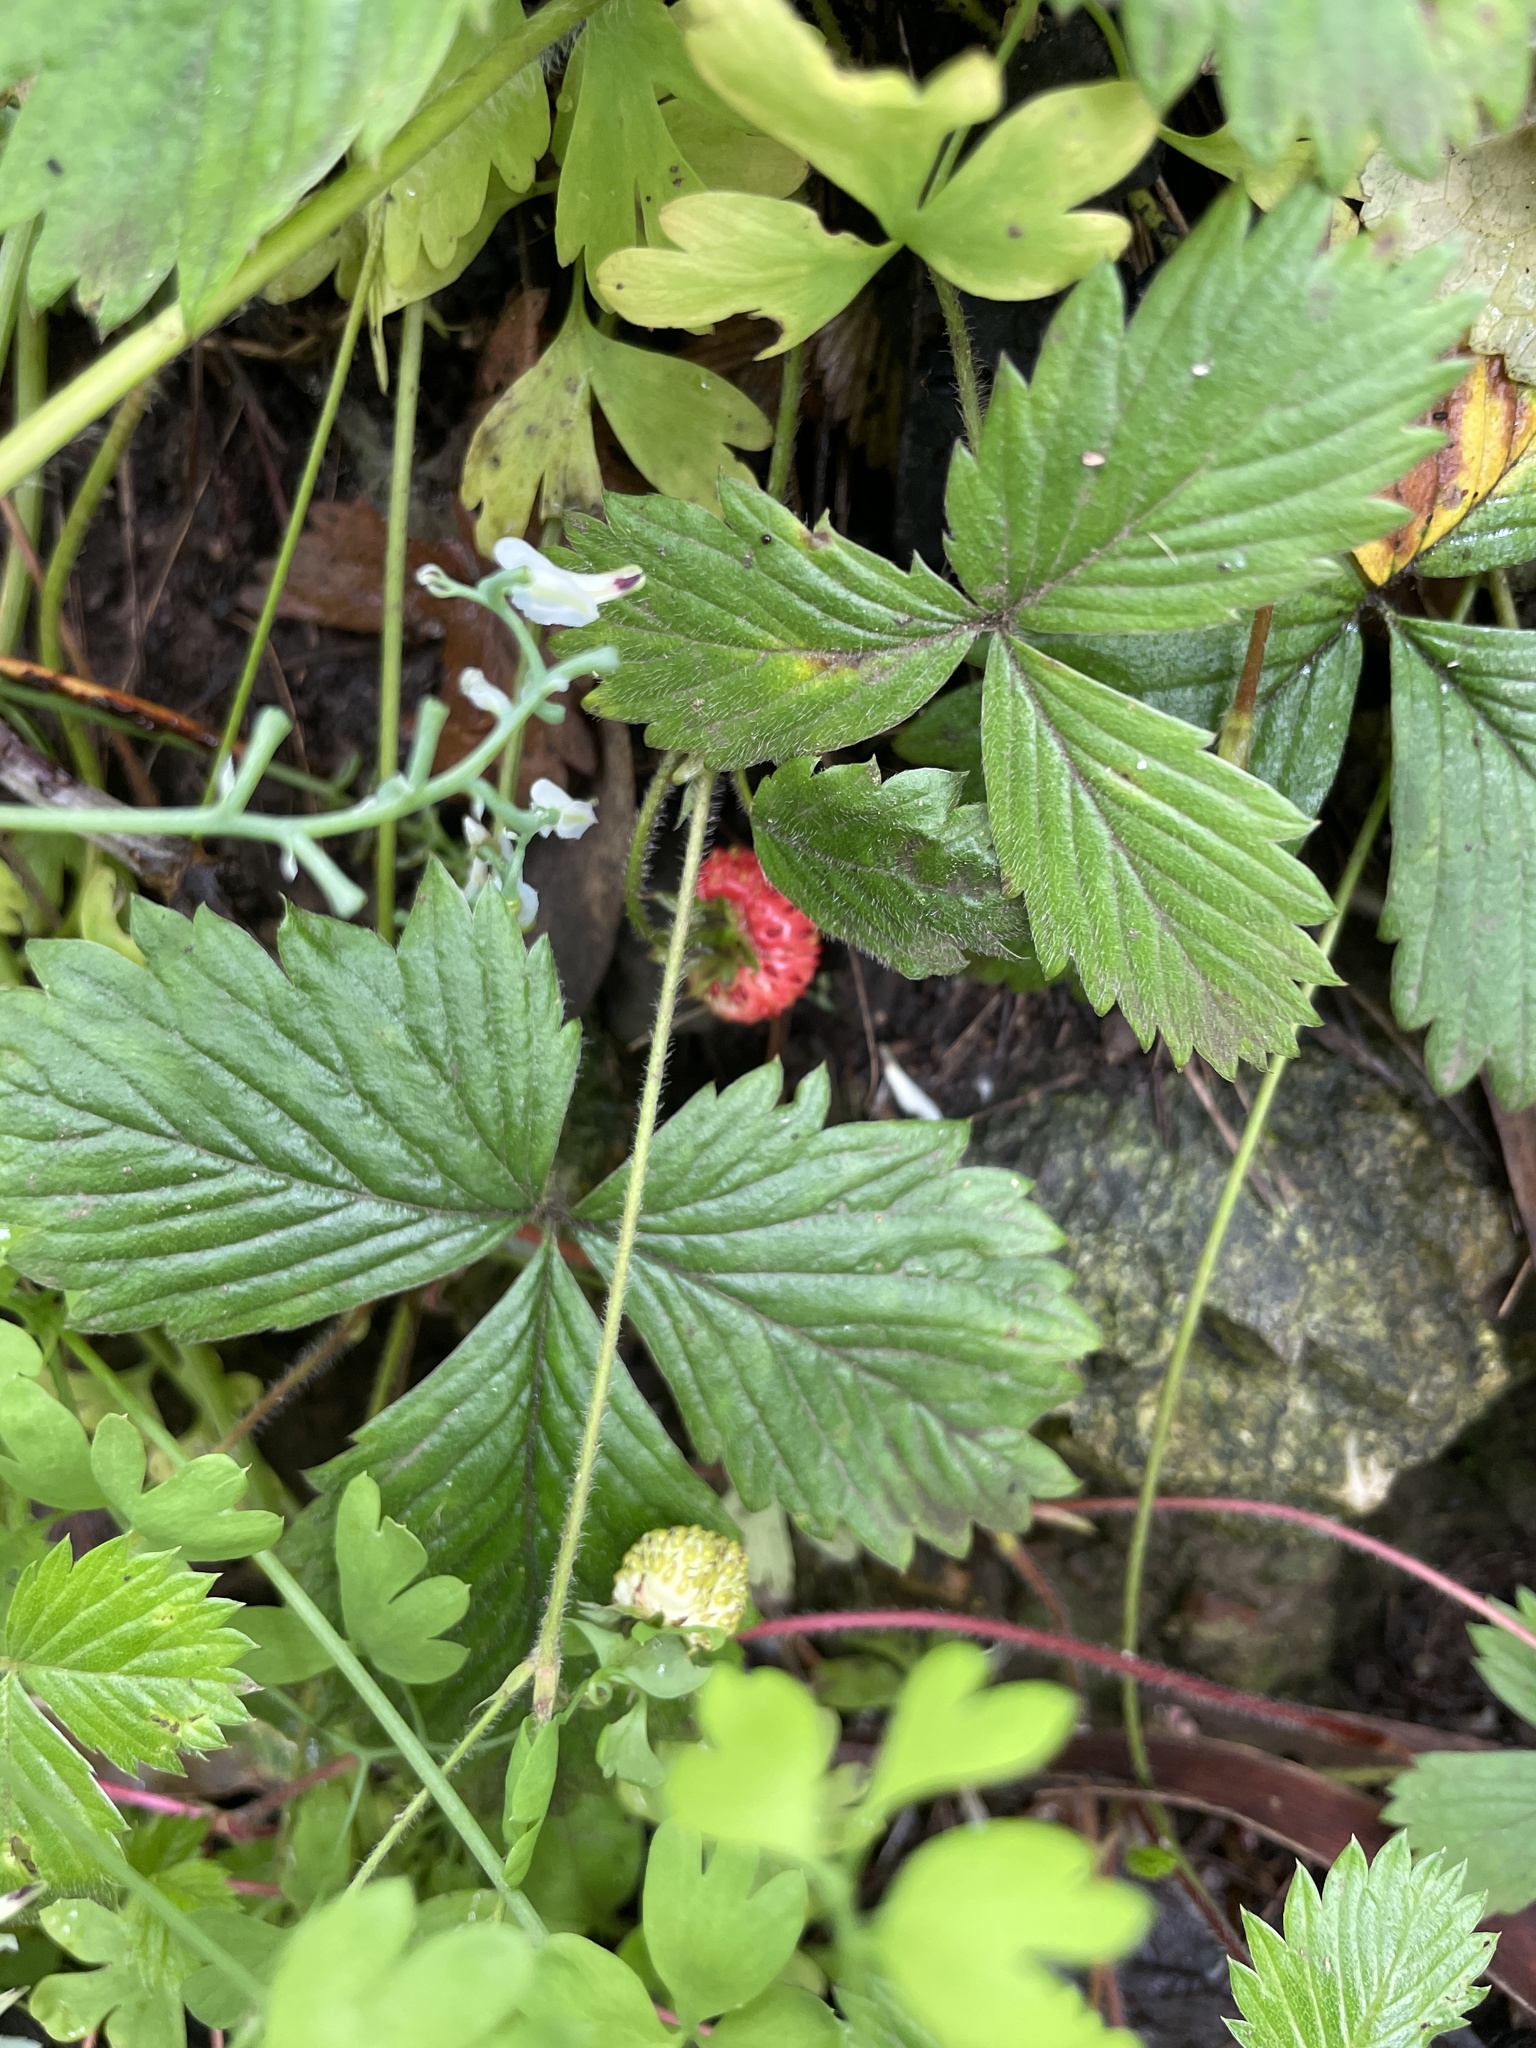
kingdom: Plantae
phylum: Tracheophyta
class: Magnoliopsida
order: Rosales
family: Rosaceae
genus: Fragaria
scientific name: Fragaria vesca
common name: Wild strawberry
